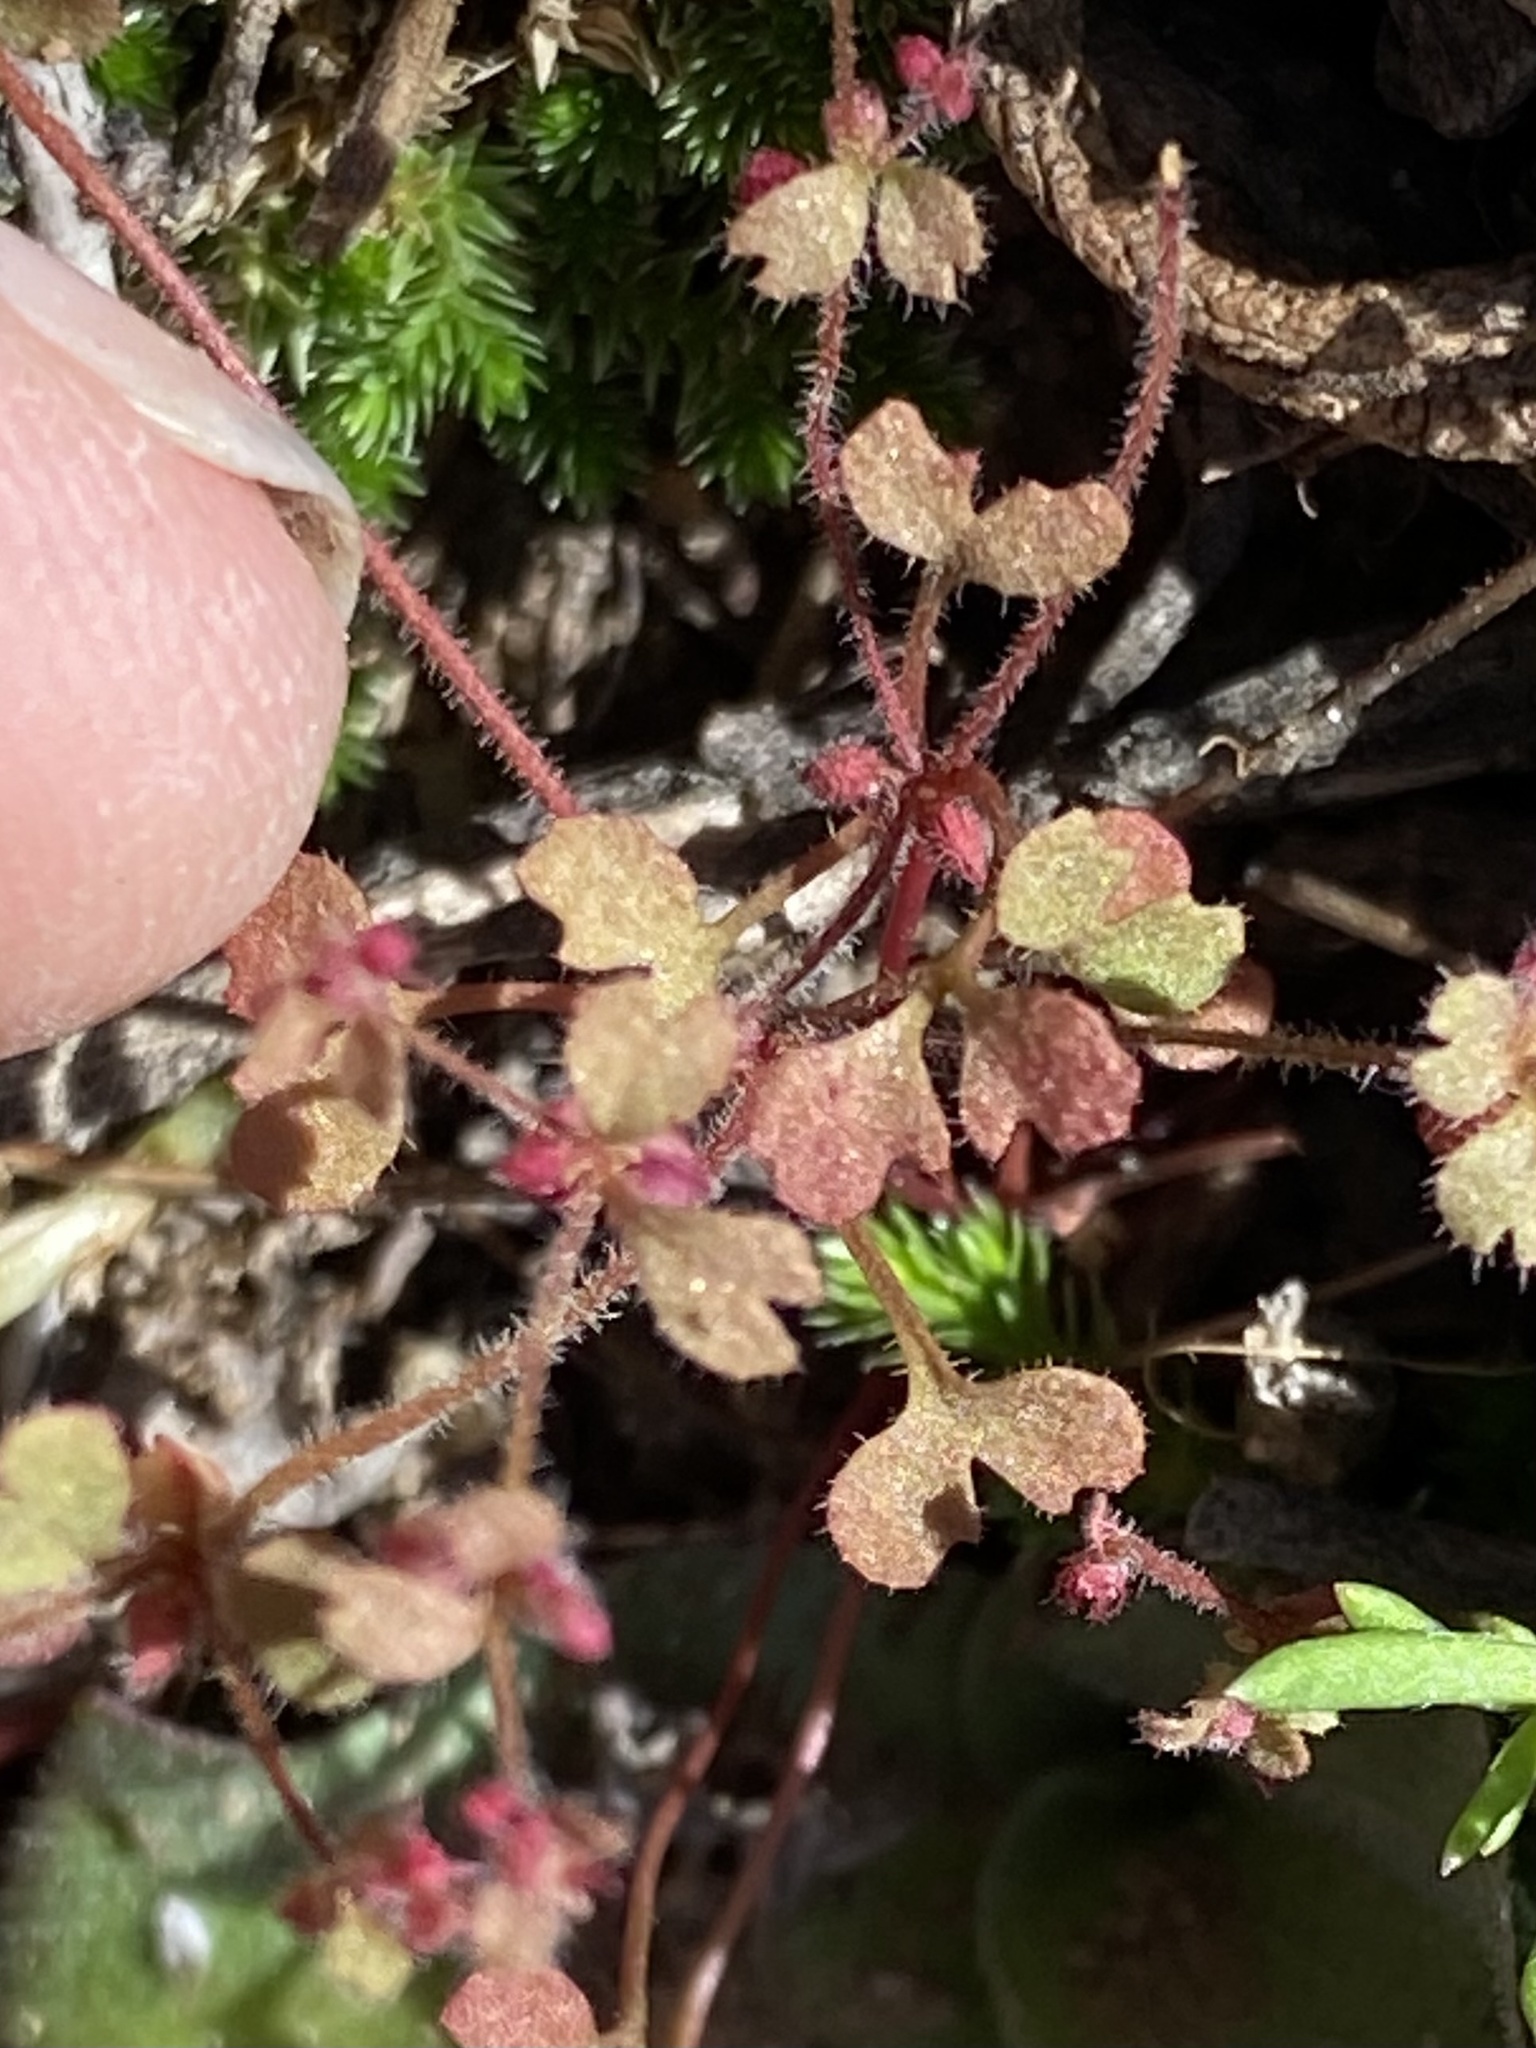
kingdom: Plantae
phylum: Tracheophyta
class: Magnoliopsida
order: Caryophyllales
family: Polygonaceae
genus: Pterostegia
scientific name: Pterostegia drymarioides
